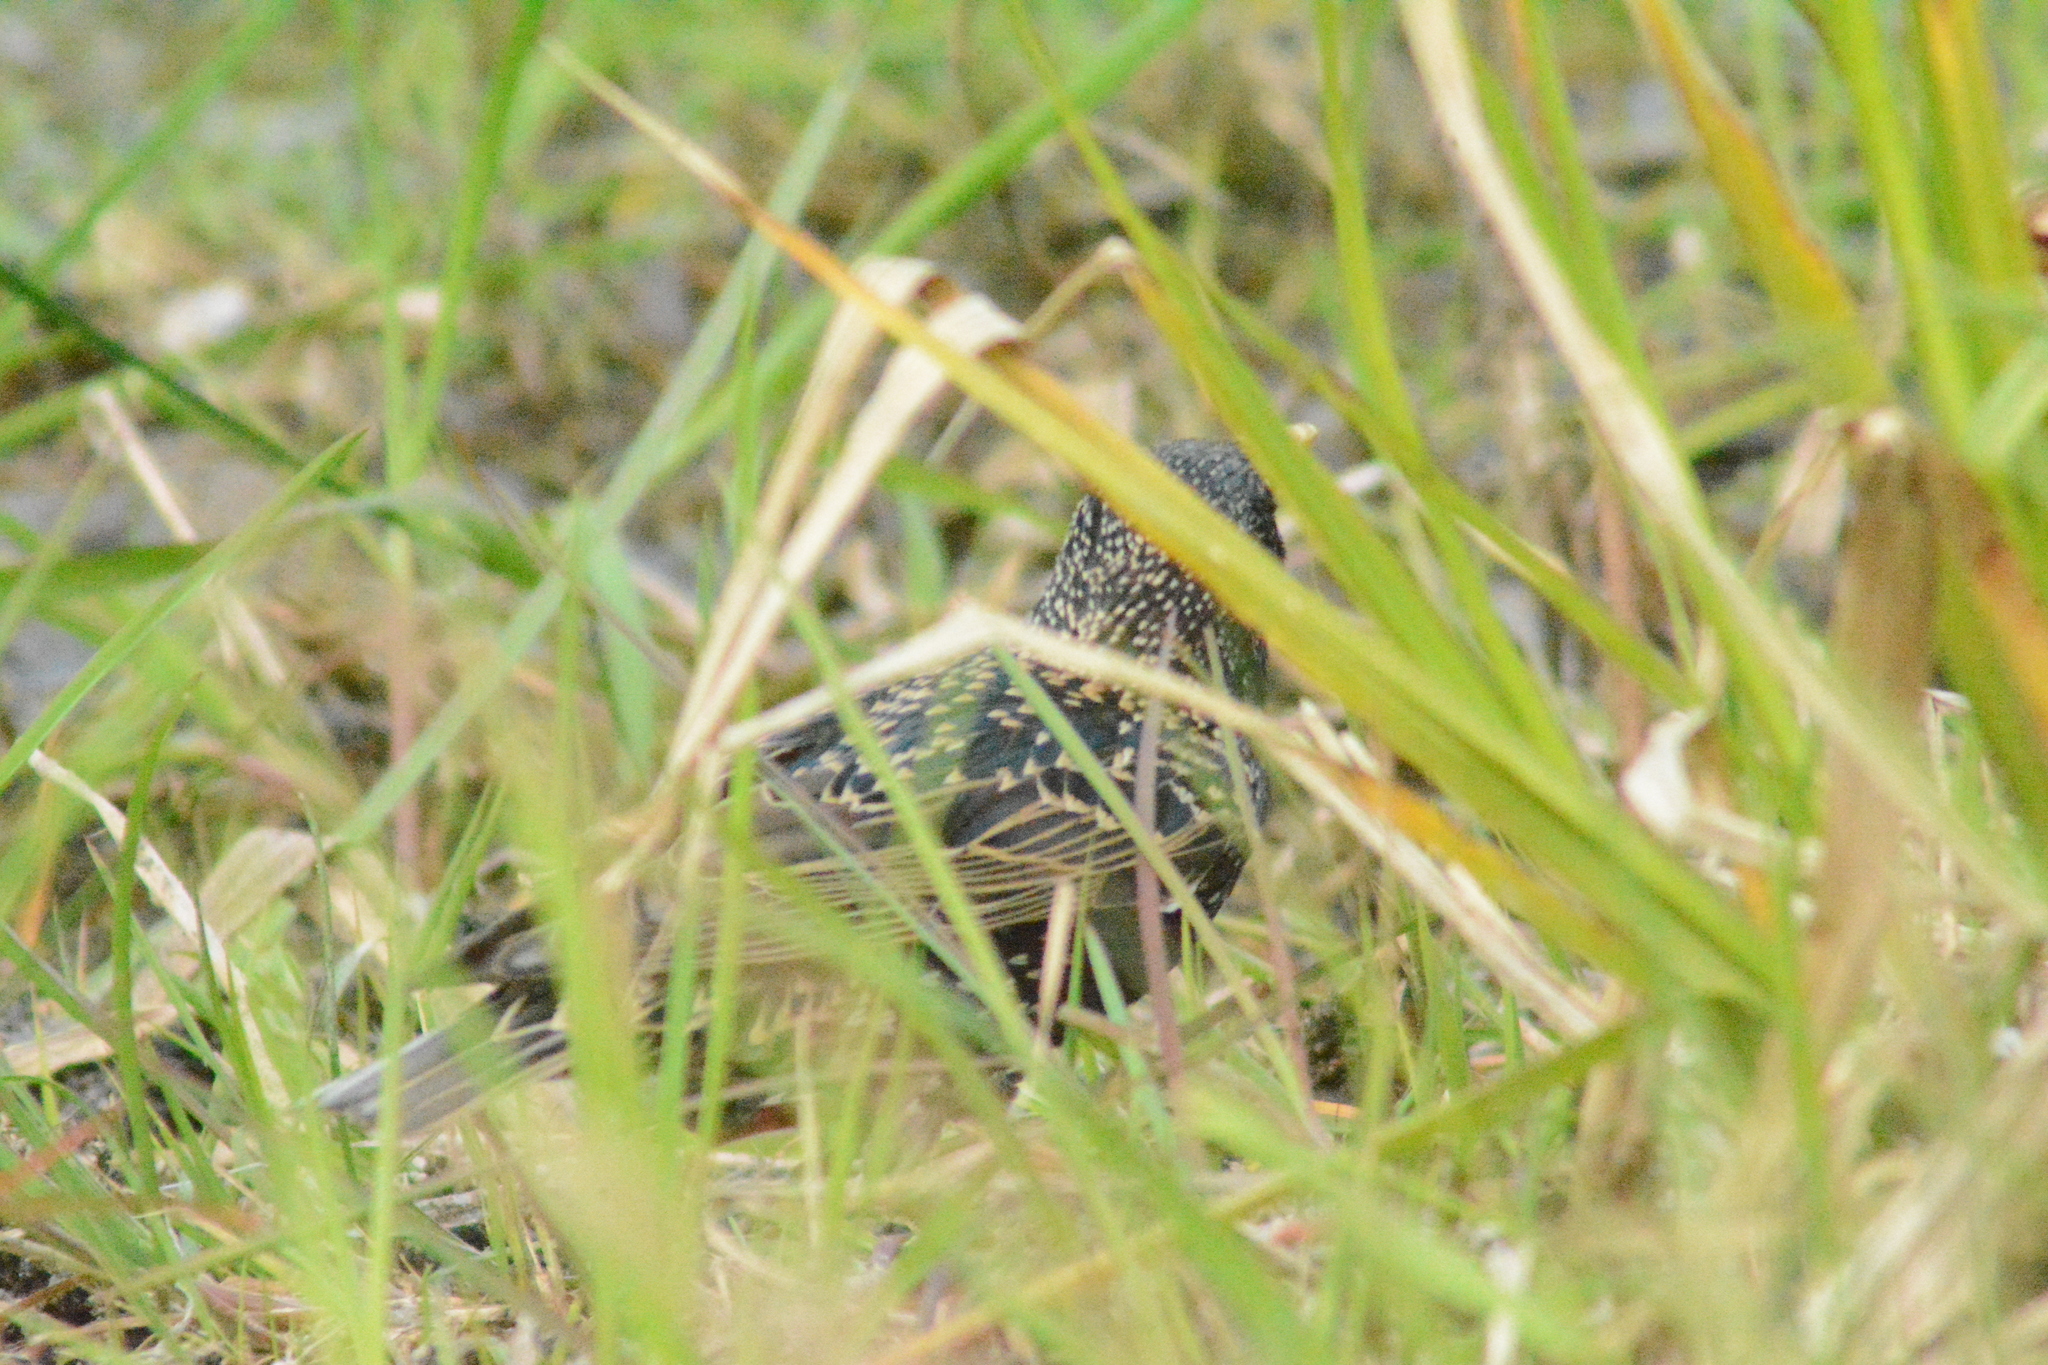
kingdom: Animalia
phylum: Chordata
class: Aves
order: Passeriformes
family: Sturnidae
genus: Sturnus
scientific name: Sturnus vulgaris
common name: Common starling
